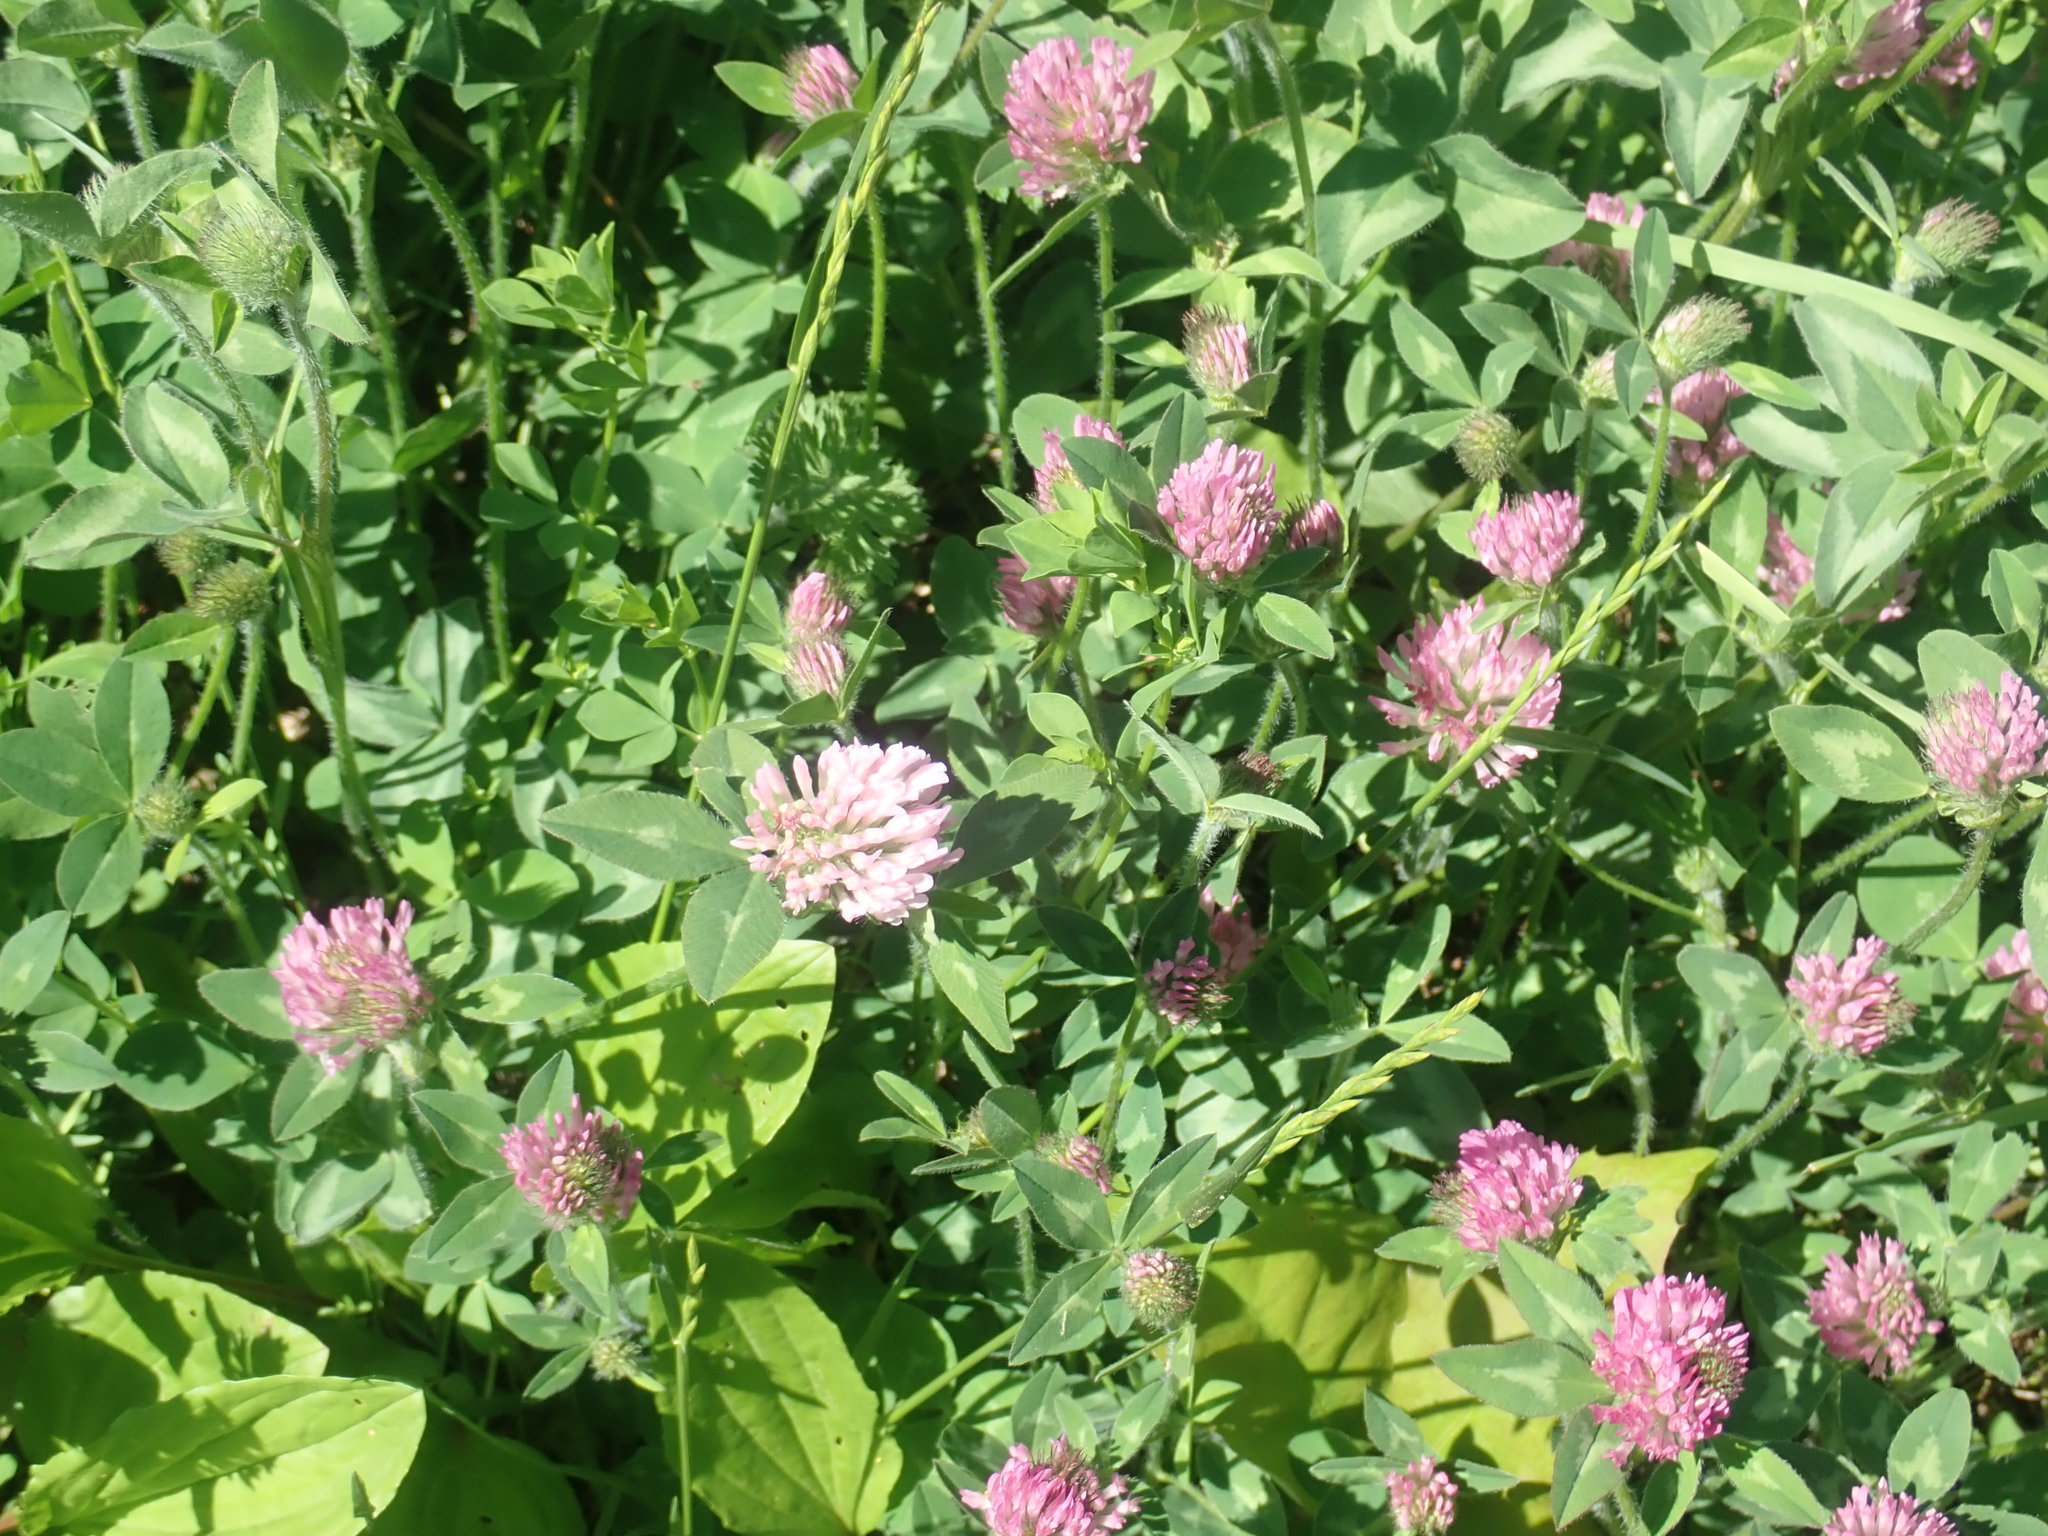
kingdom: Plantae
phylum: Tracheophyta
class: Magnoliopsida
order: Fabales
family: Fabaceae
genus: Trifolium
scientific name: Trifolium pratense
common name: Red clover
